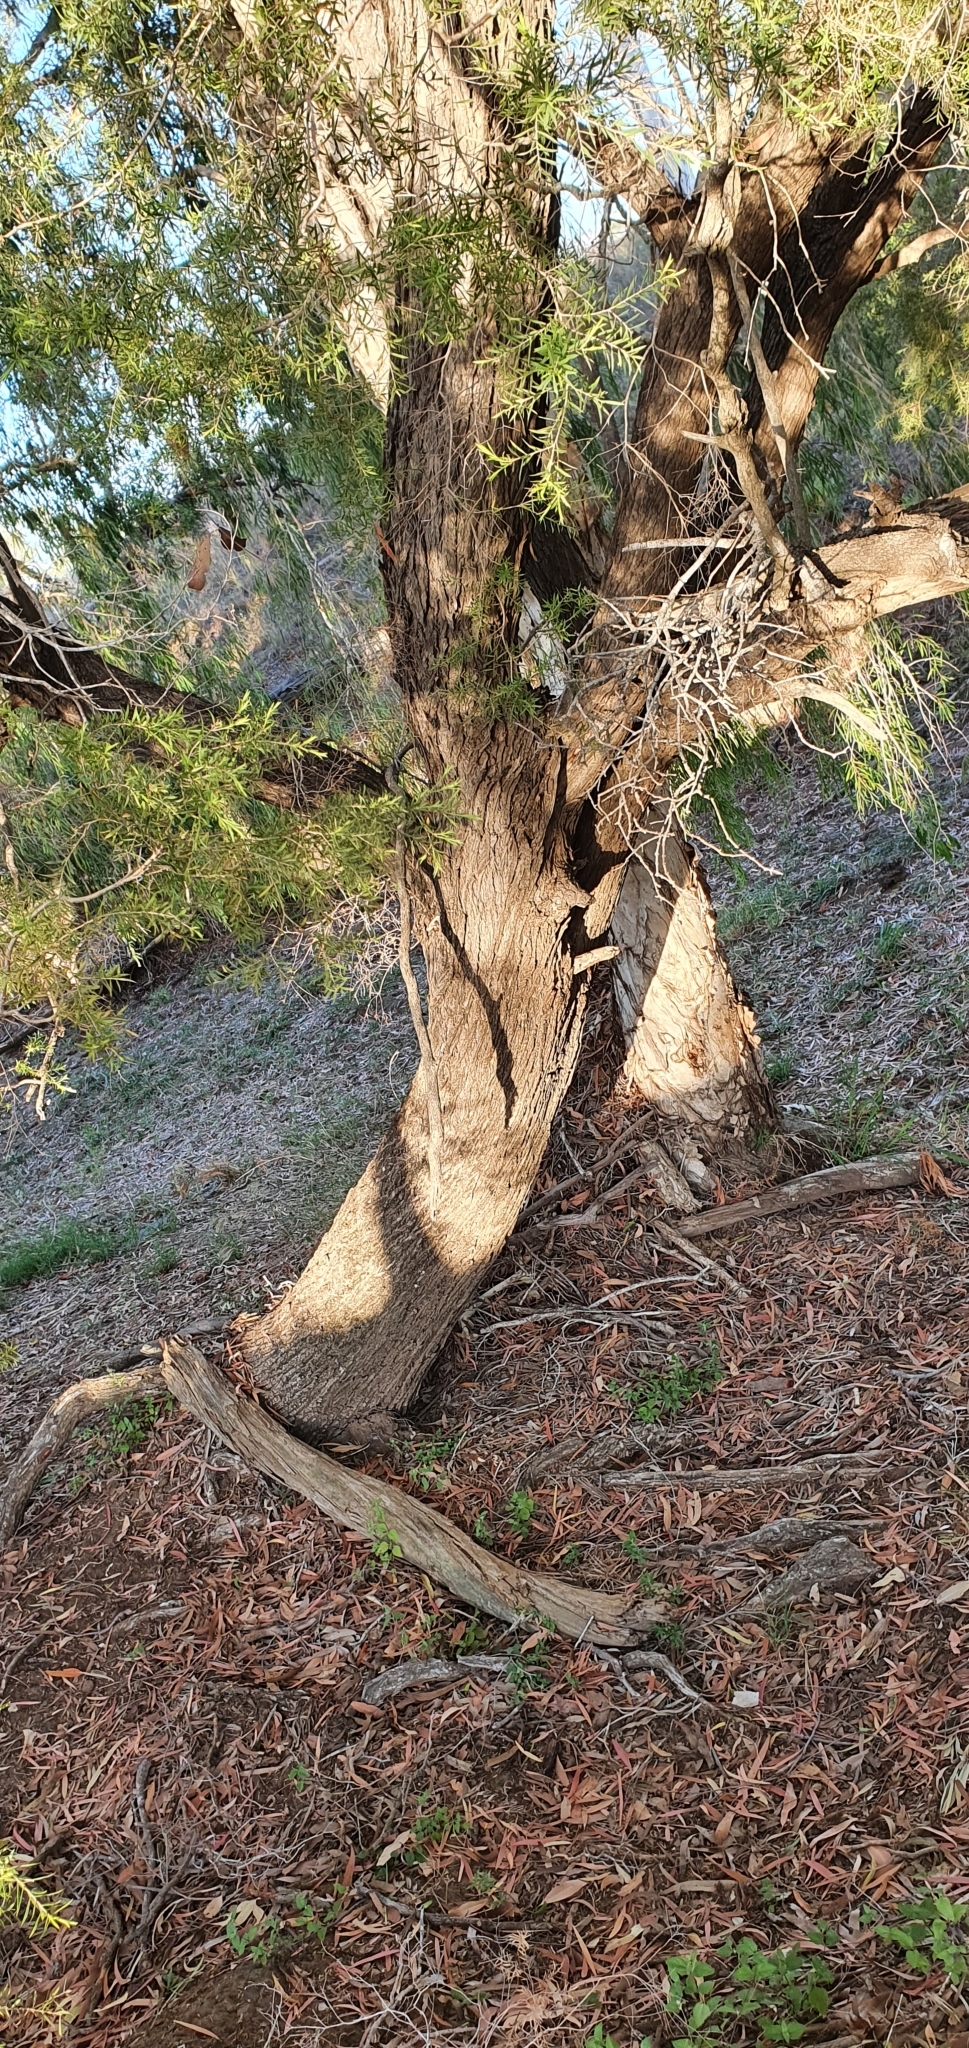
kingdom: Plantae
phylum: Tracheophyta
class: Magnoliopsida
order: Myrtales
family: Myrtaceae
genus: Melaleuca
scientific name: Melaleuca bracteata
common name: Black tea-tree
